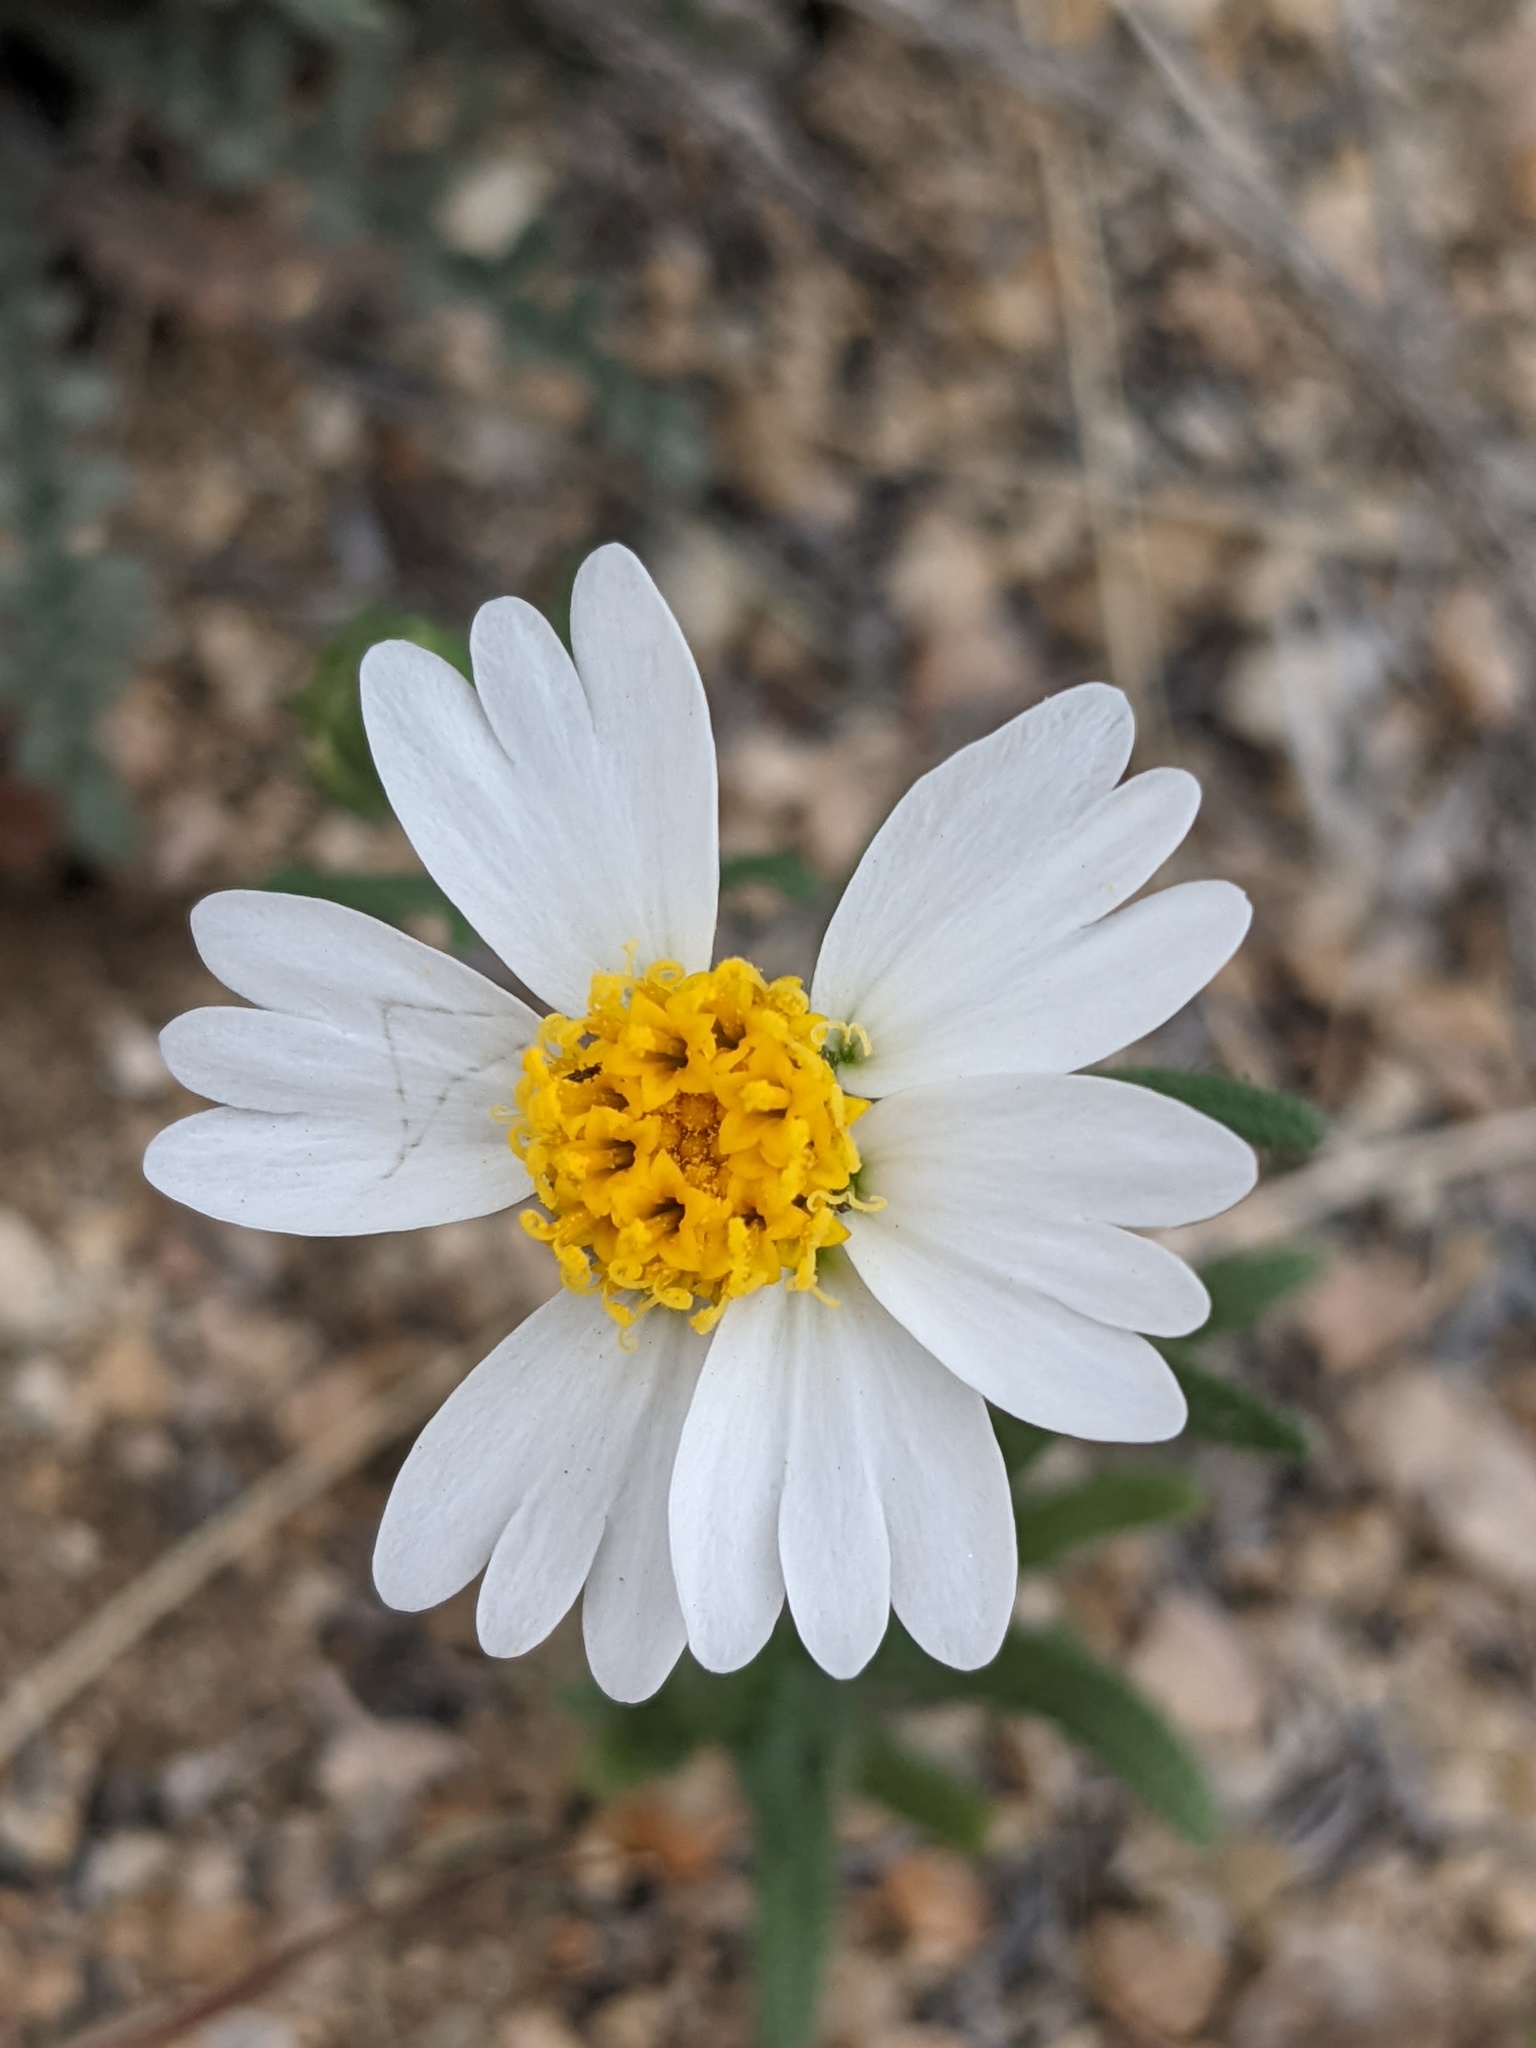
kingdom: Plantae
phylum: Tracheophyta
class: Magnoliopsida
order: Asterales
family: Asteraceae
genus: Layia
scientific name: Layia glandulosa
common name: White layia
